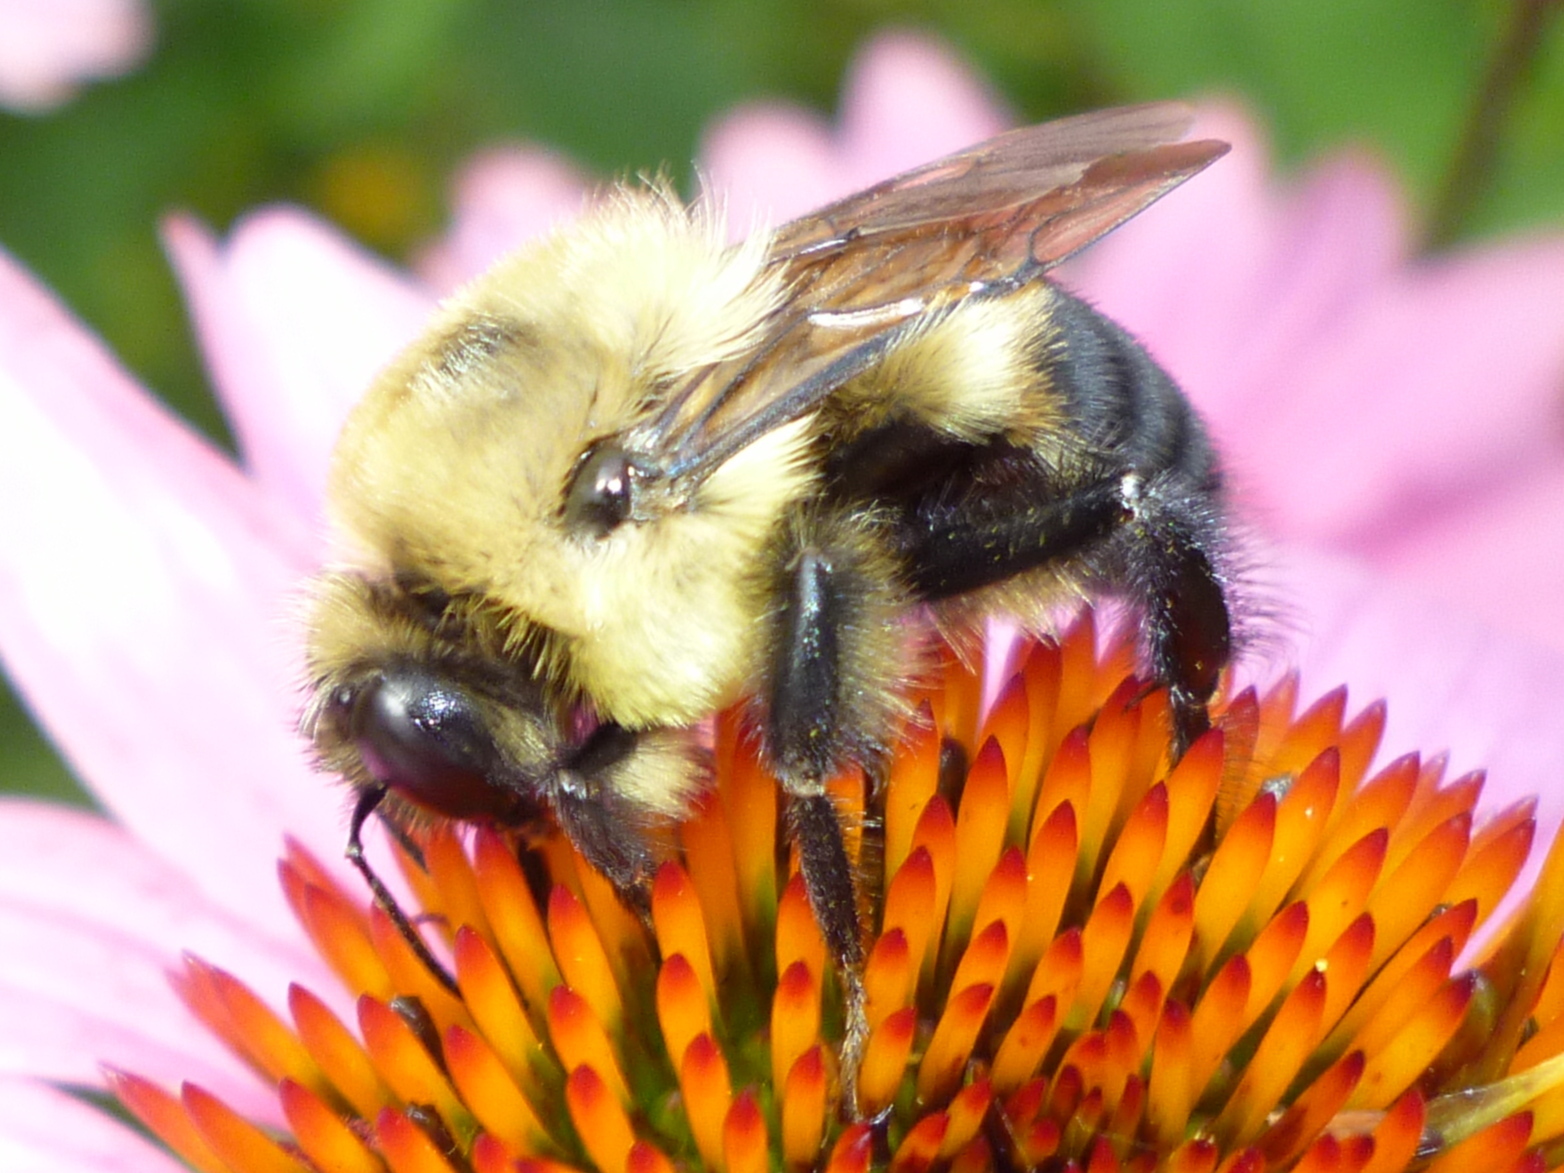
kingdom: Animalia
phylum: Arthropoda
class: Insecta
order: Hymenoptera
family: Apidae
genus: Bombus
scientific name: Bombus griseocollis
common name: Brown-belted bumble bee
